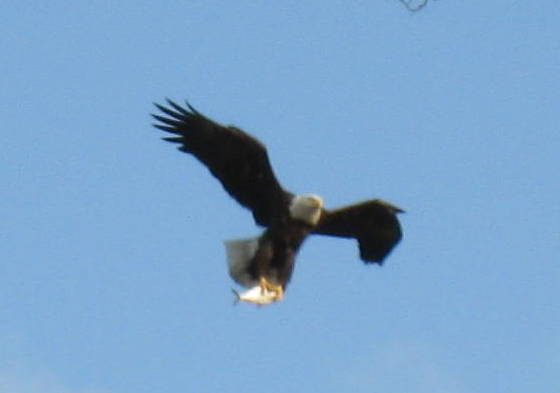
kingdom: Animalia
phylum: Chordata
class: Aves
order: Accipitriformes
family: Accipitridae
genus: Haliaeetus
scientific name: Haliaeetus leucocephalus
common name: Bald eagle
